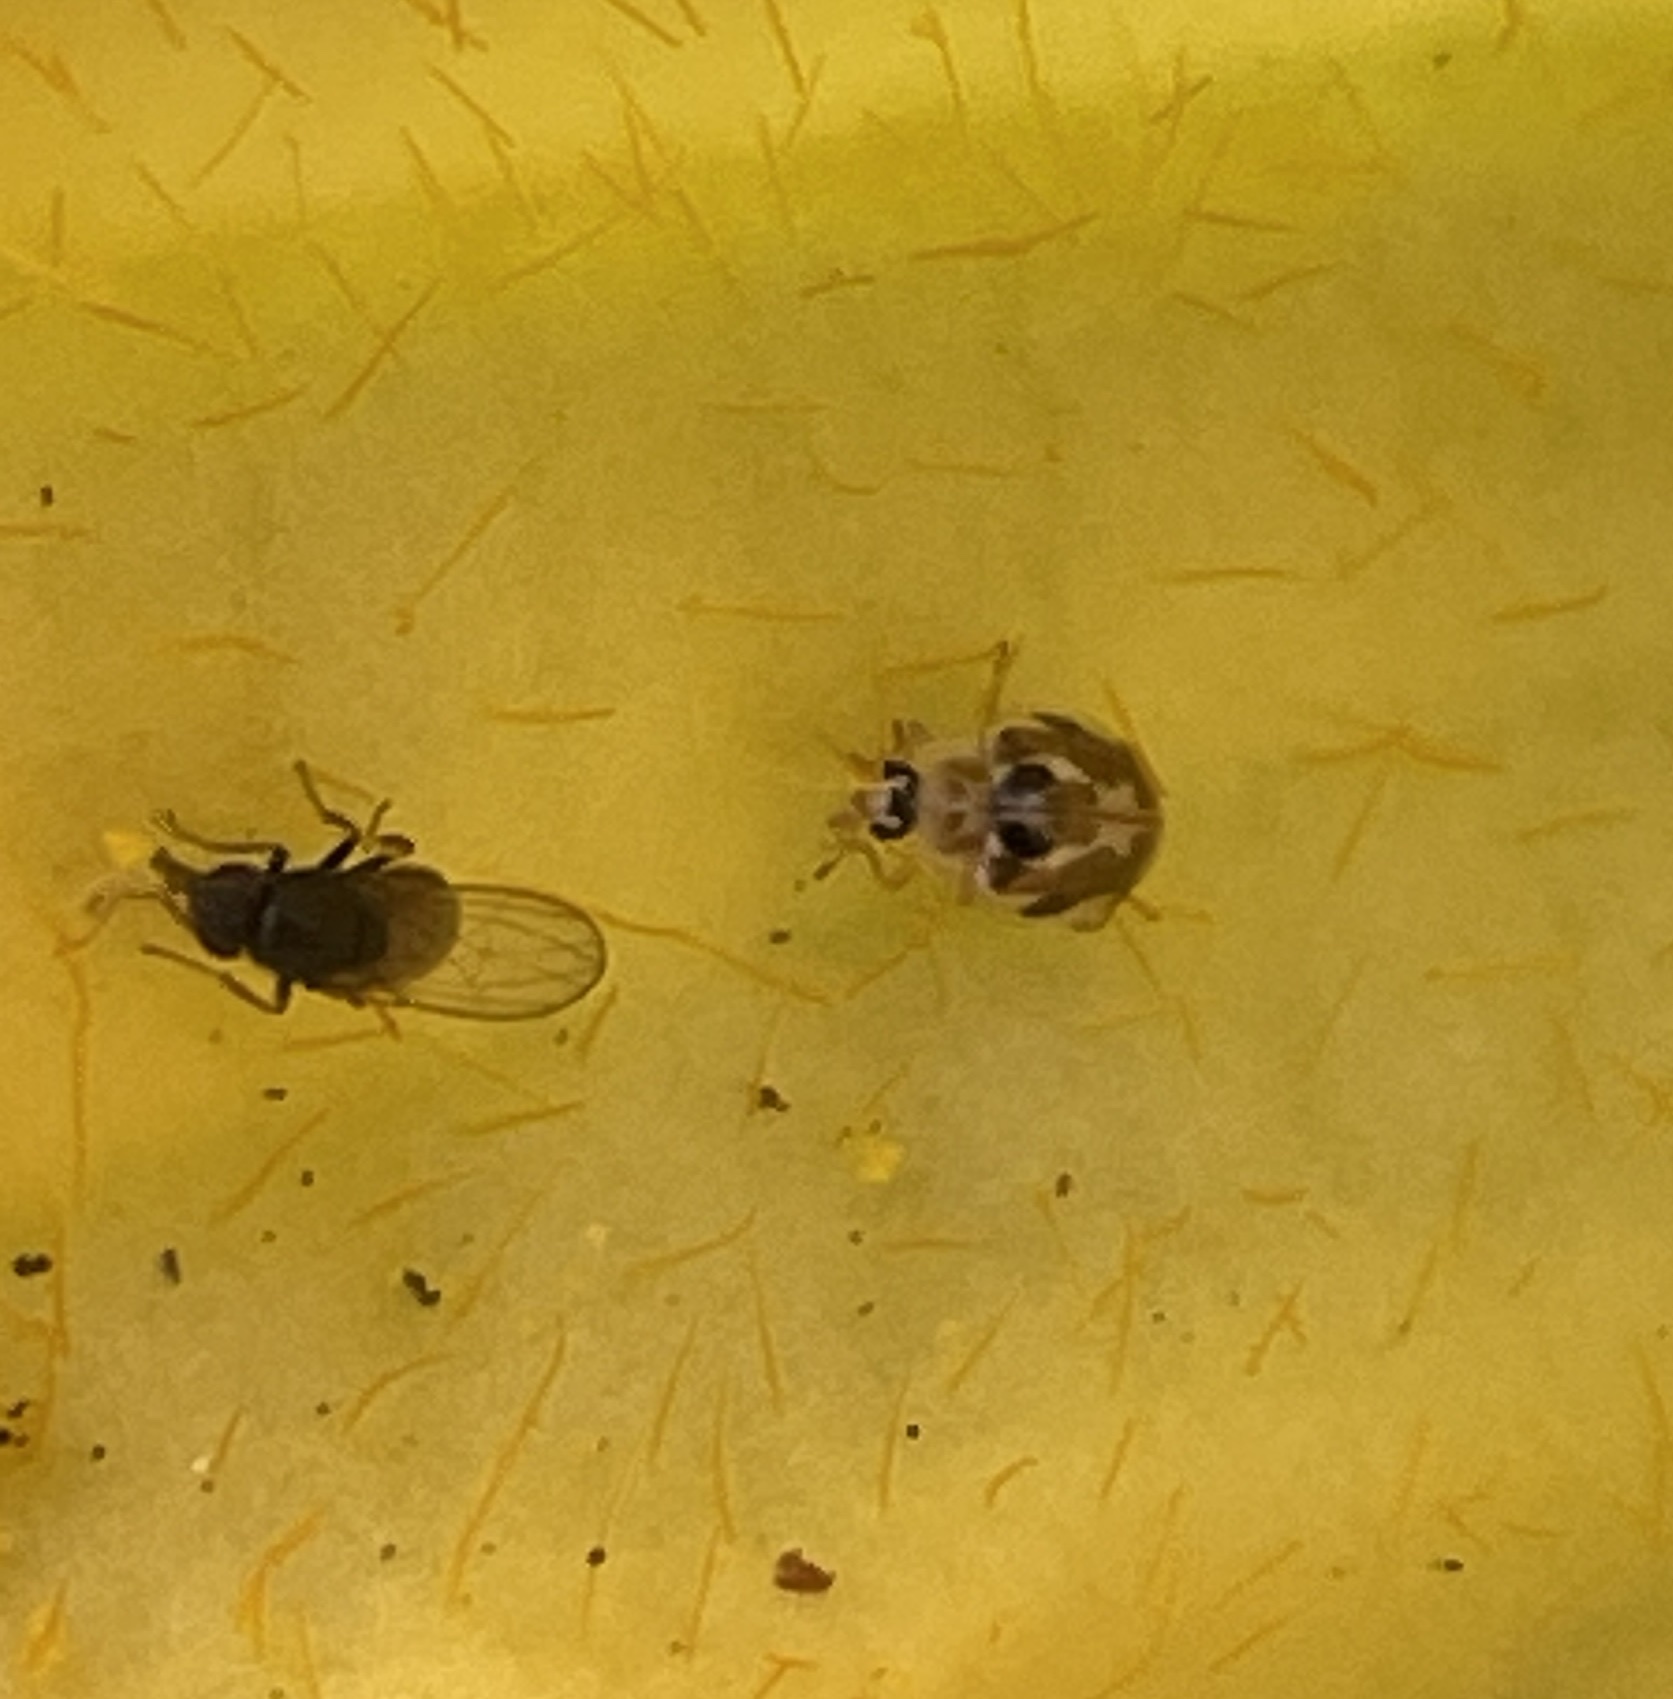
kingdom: Animalia
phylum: Arthropoda
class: Insecta
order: Coleoptera
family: Coccinellidae
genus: Psyllobora
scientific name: Psyllobora vigintimaculata
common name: Ladybird beetle
